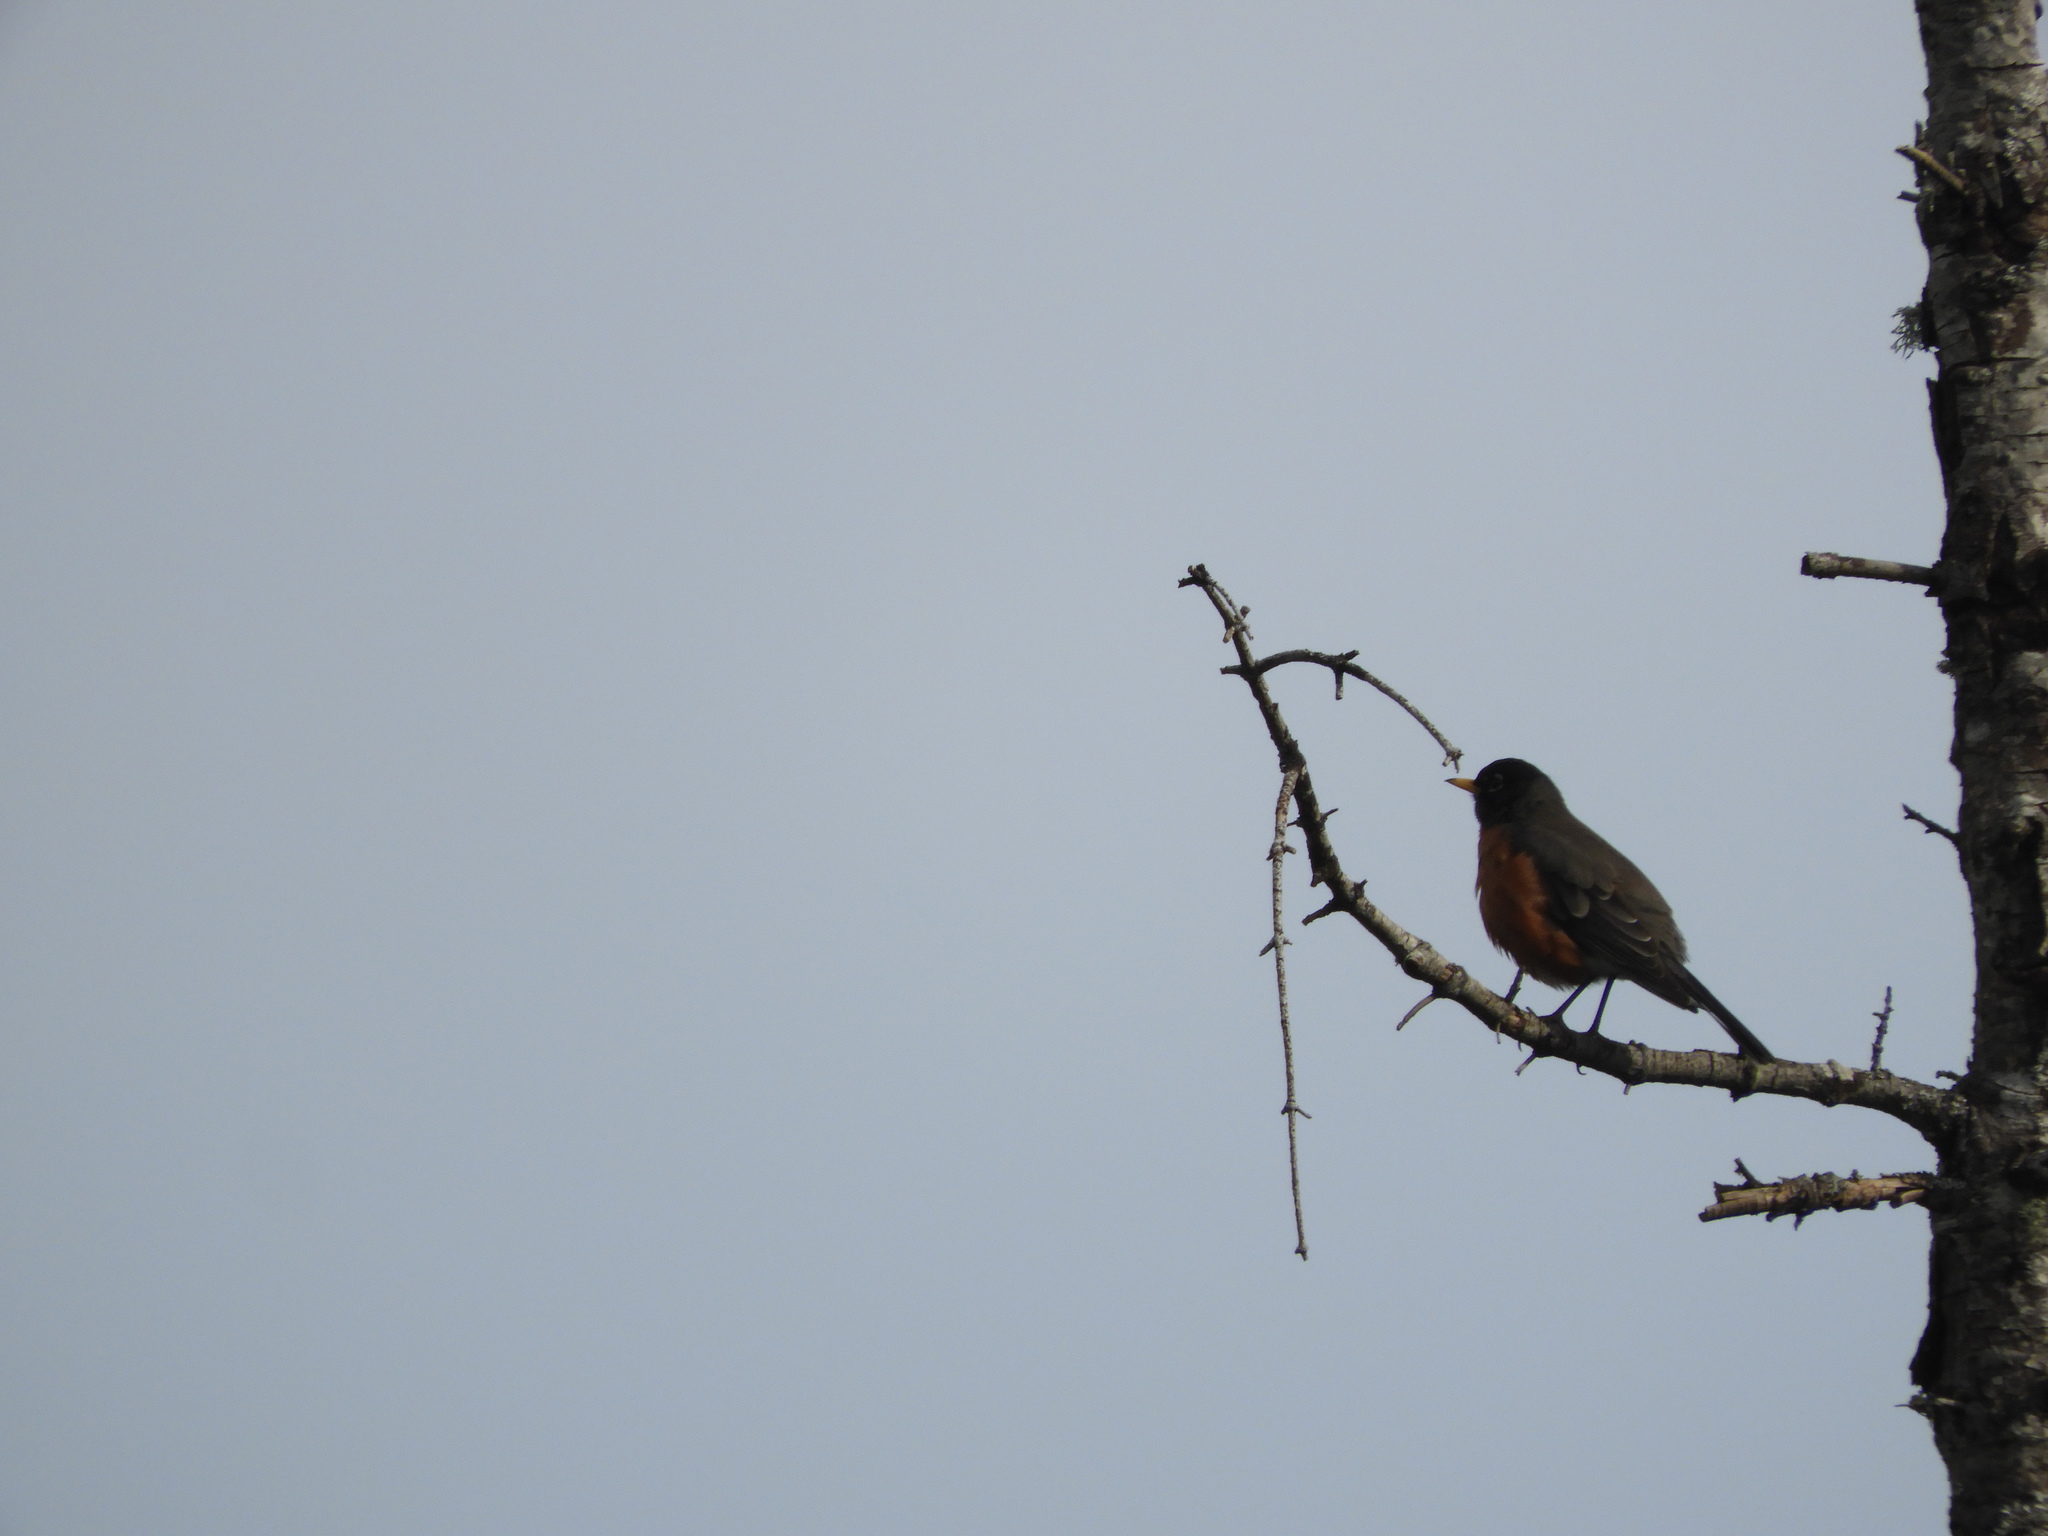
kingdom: Animalia
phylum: Chordata
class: Aves
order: Passeriformes
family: Turdidae
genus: Turdus
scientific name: Turdus migratorius
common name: American robin
